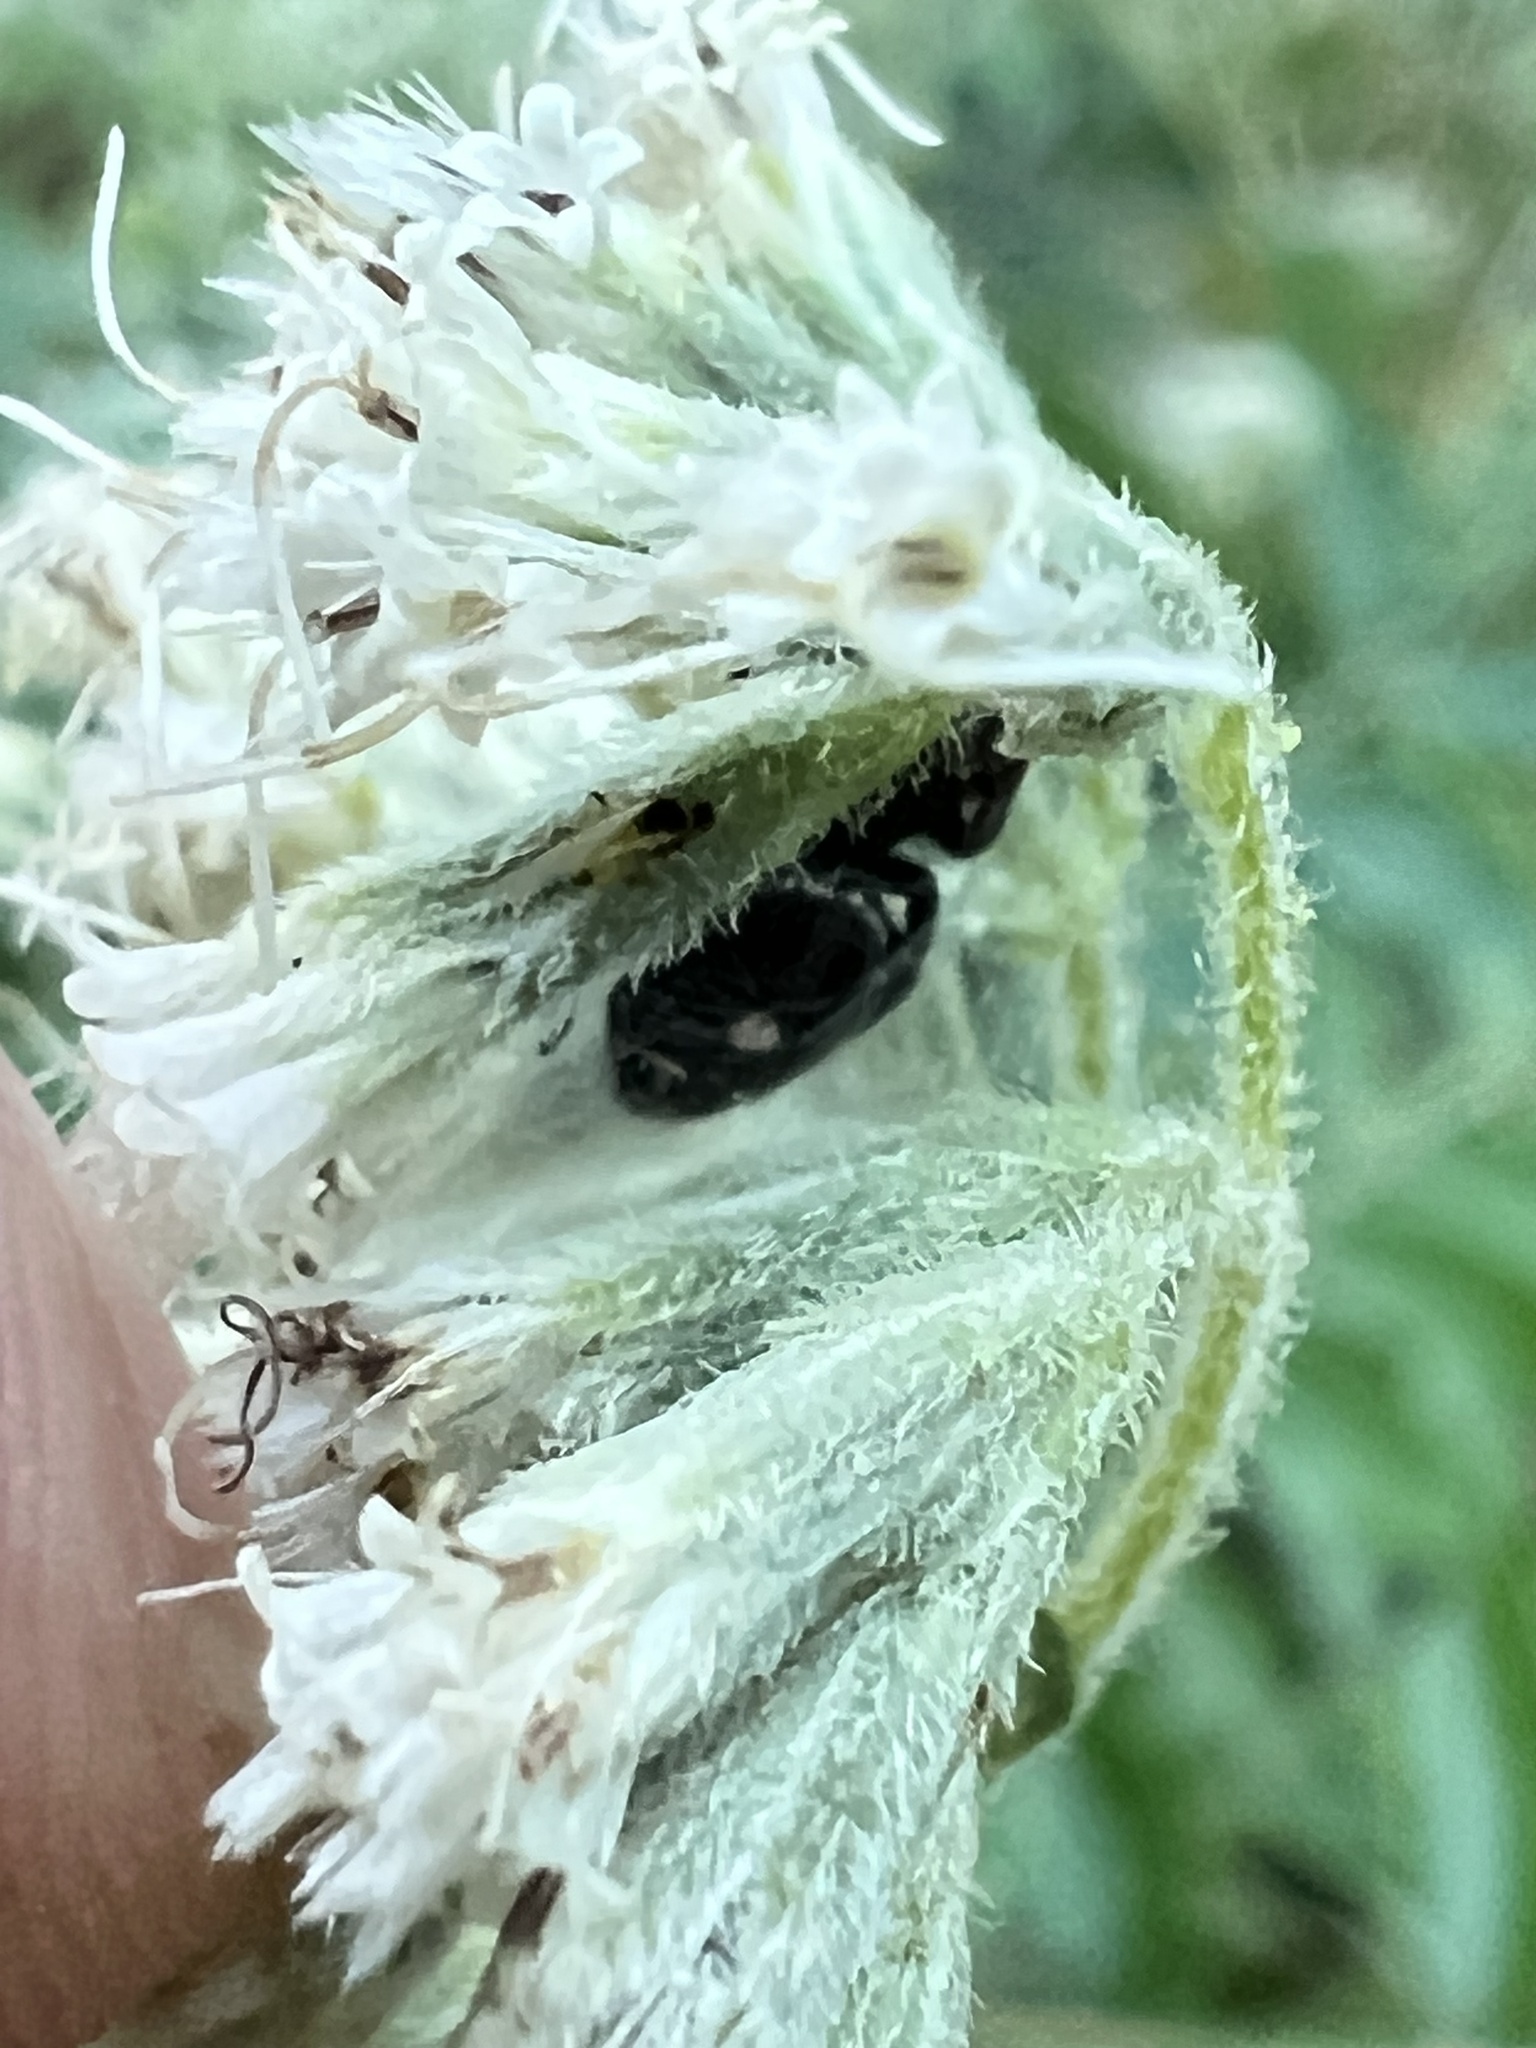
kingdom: Animalia
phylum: Arthropoda
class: Arachnida
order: Araneae
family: Salticidae
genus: Phidippus
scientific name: Phidippus audax
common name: Bold jumper
